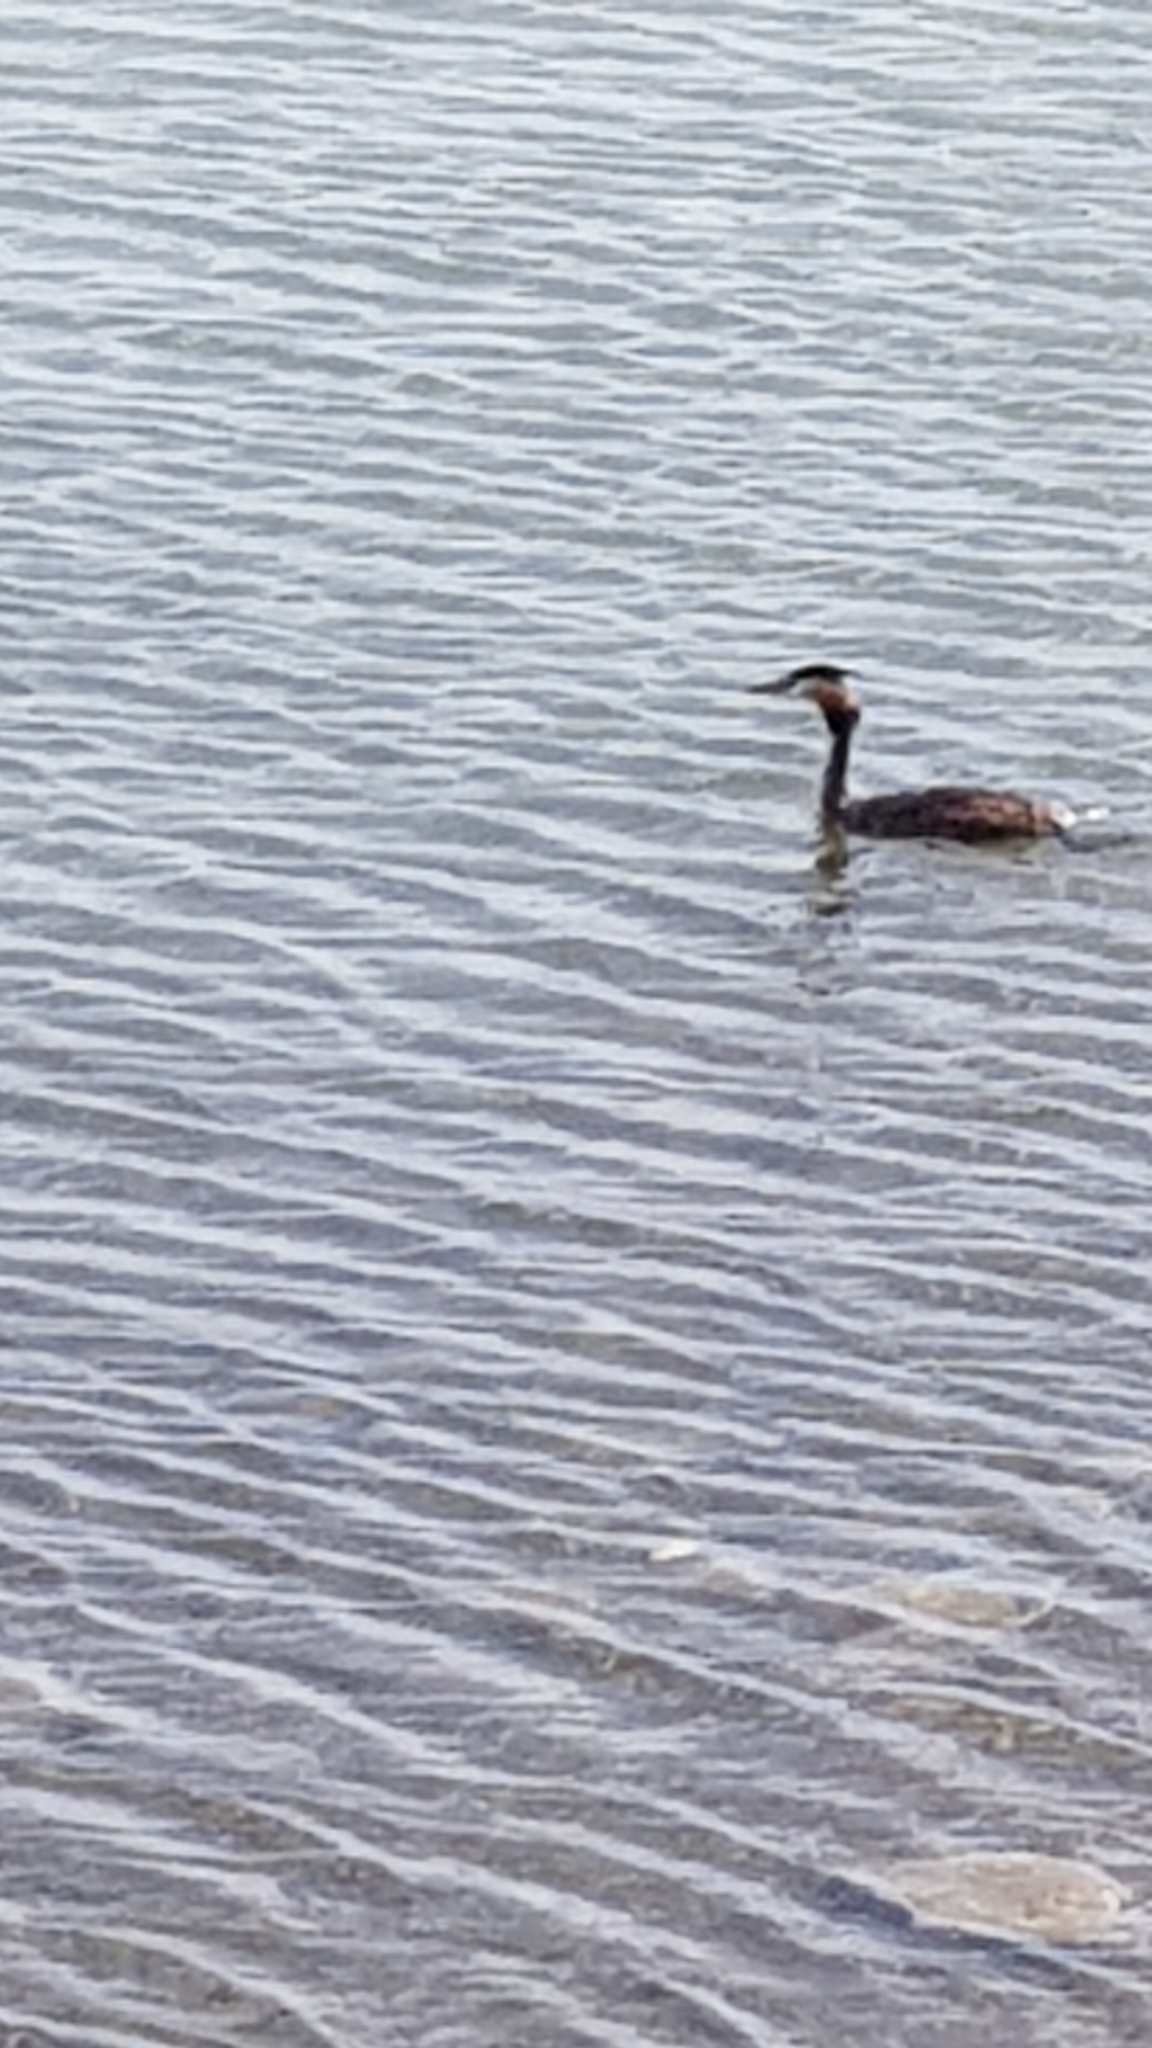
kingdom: Animalia
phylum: Chordata
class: Aves
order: Podicipediformes
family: Podicipedidae
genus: Podiceps
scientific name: Podiceps cristatus
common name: Great crested grebe
